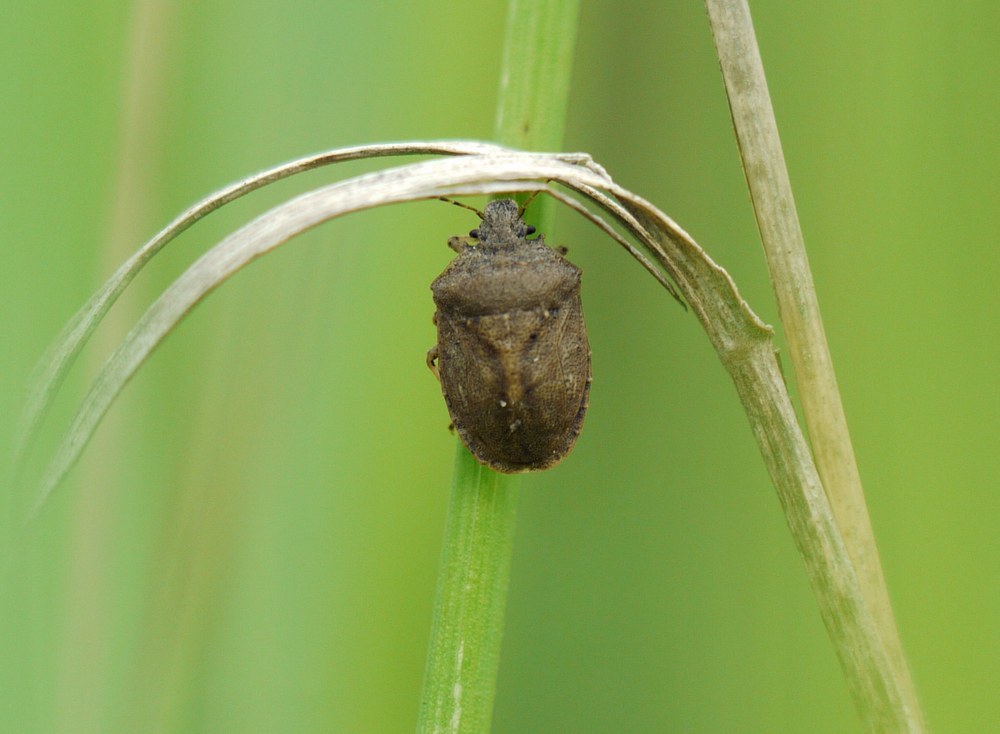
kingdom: Animalia
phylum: Arthropoda
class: Insecta
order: Hemiptera
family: Pentatomidae
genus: Podops
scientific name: Podops rectidens
